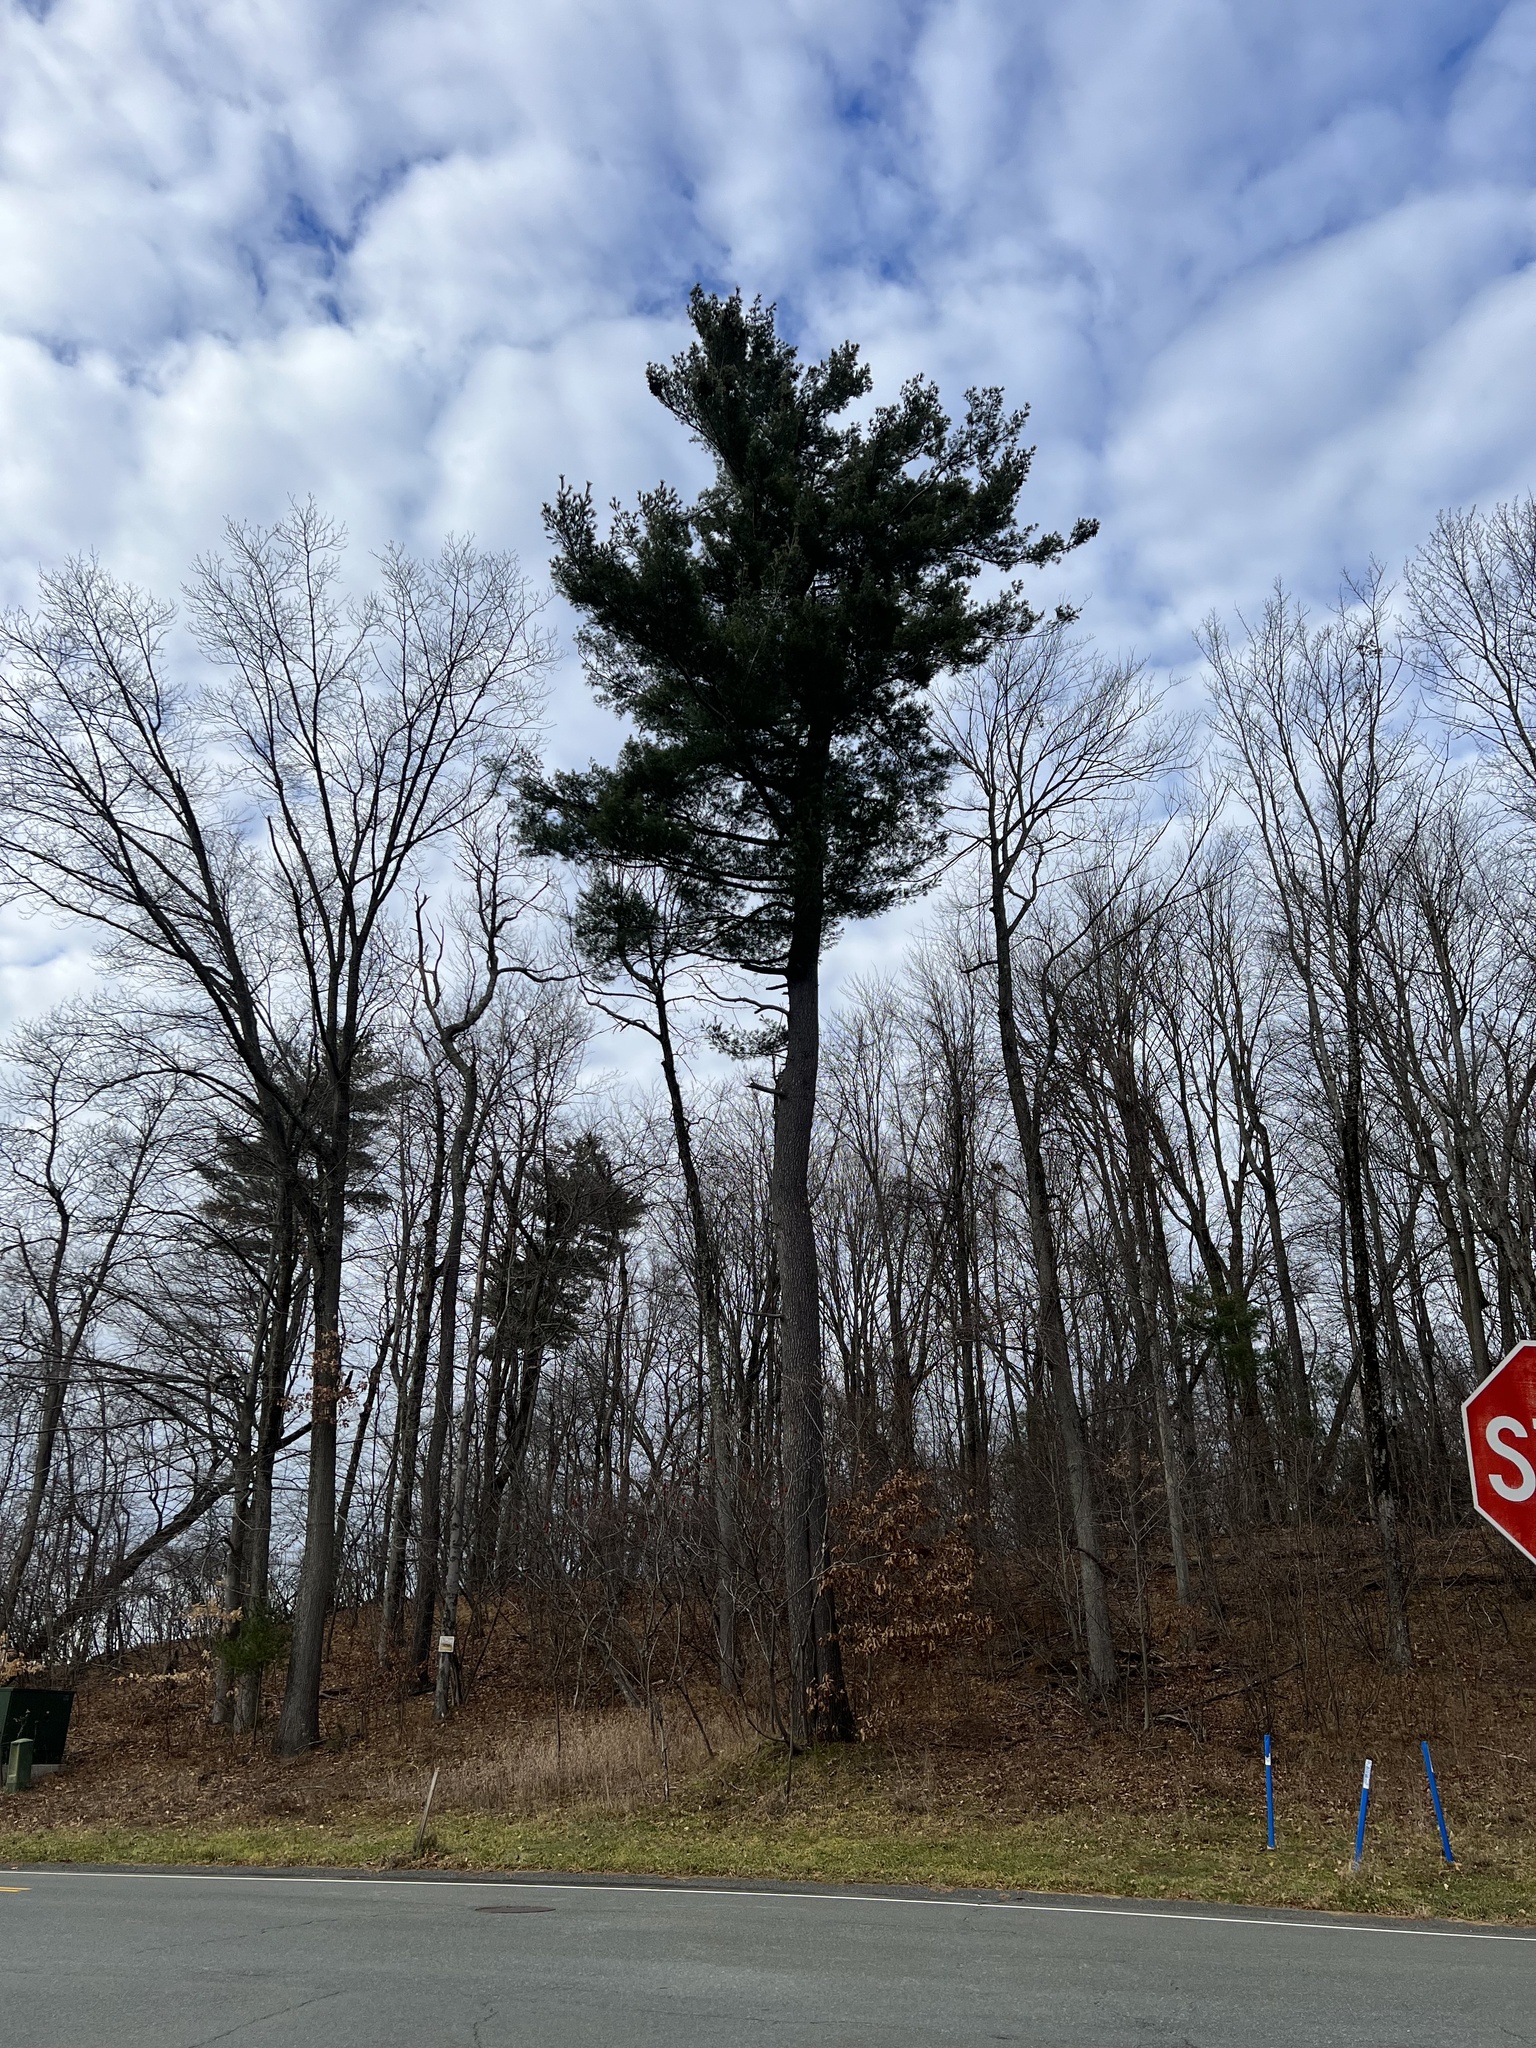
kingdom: Plantae
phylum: Tracheophyta
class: Pinopsida
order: Pinales
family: Pinaceae
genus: Pinus
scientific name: Pinus strobus
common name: Weymouth pine
